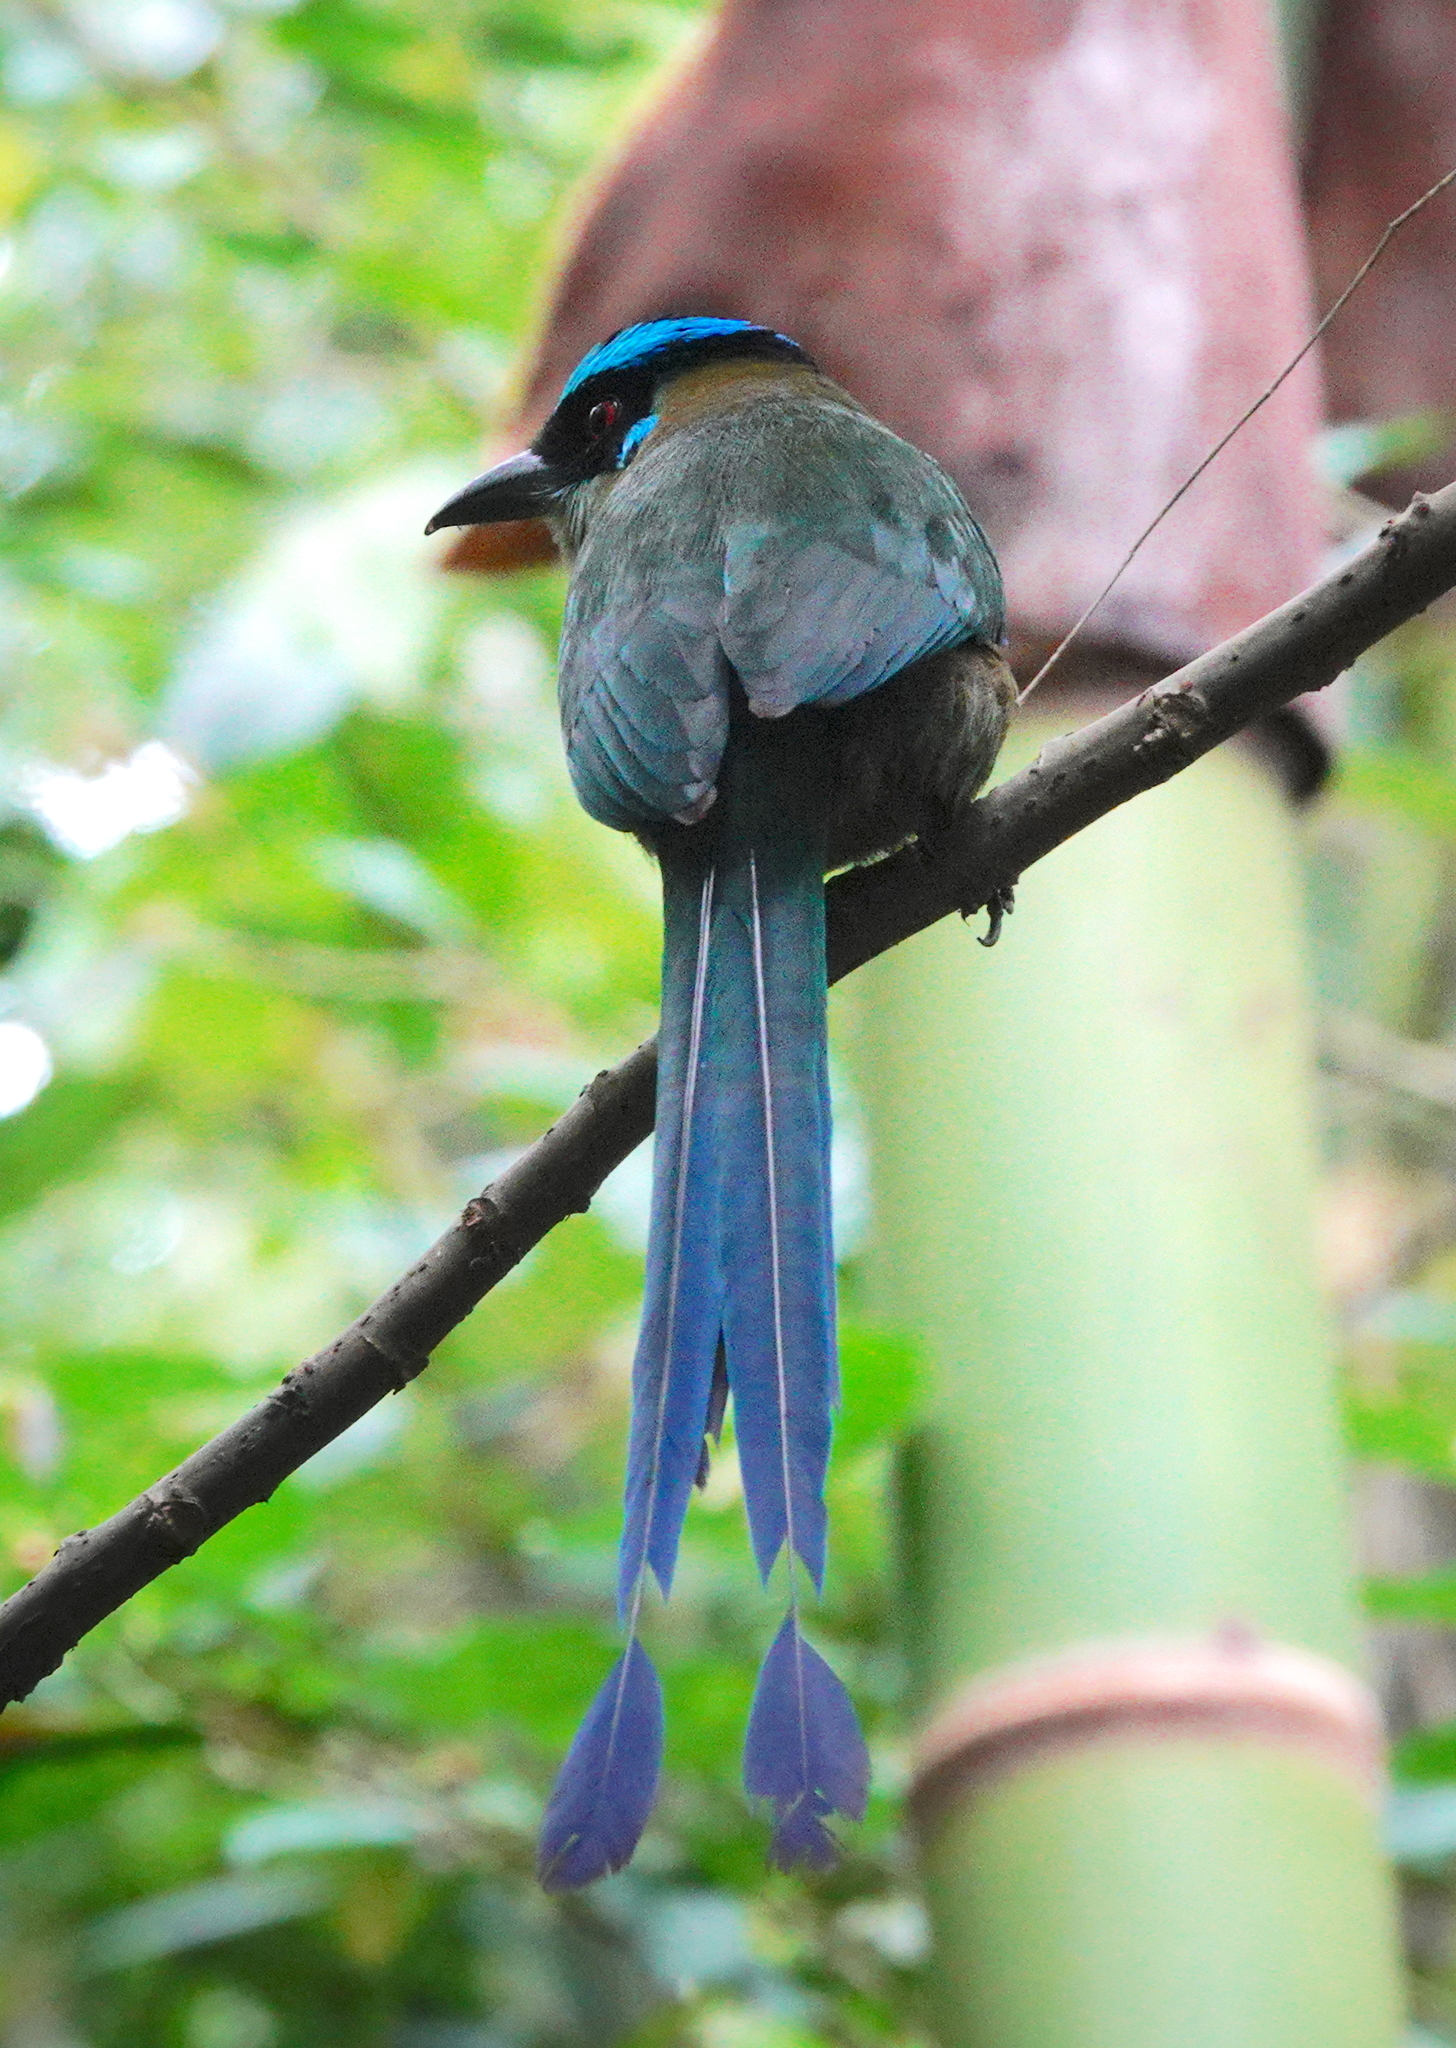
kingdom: Animalia
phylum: Chordata
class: Aves
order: Coraciiformes
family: Momotidae
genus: Momotus
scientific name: Momotus aequatorialis
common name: Andean motmot
